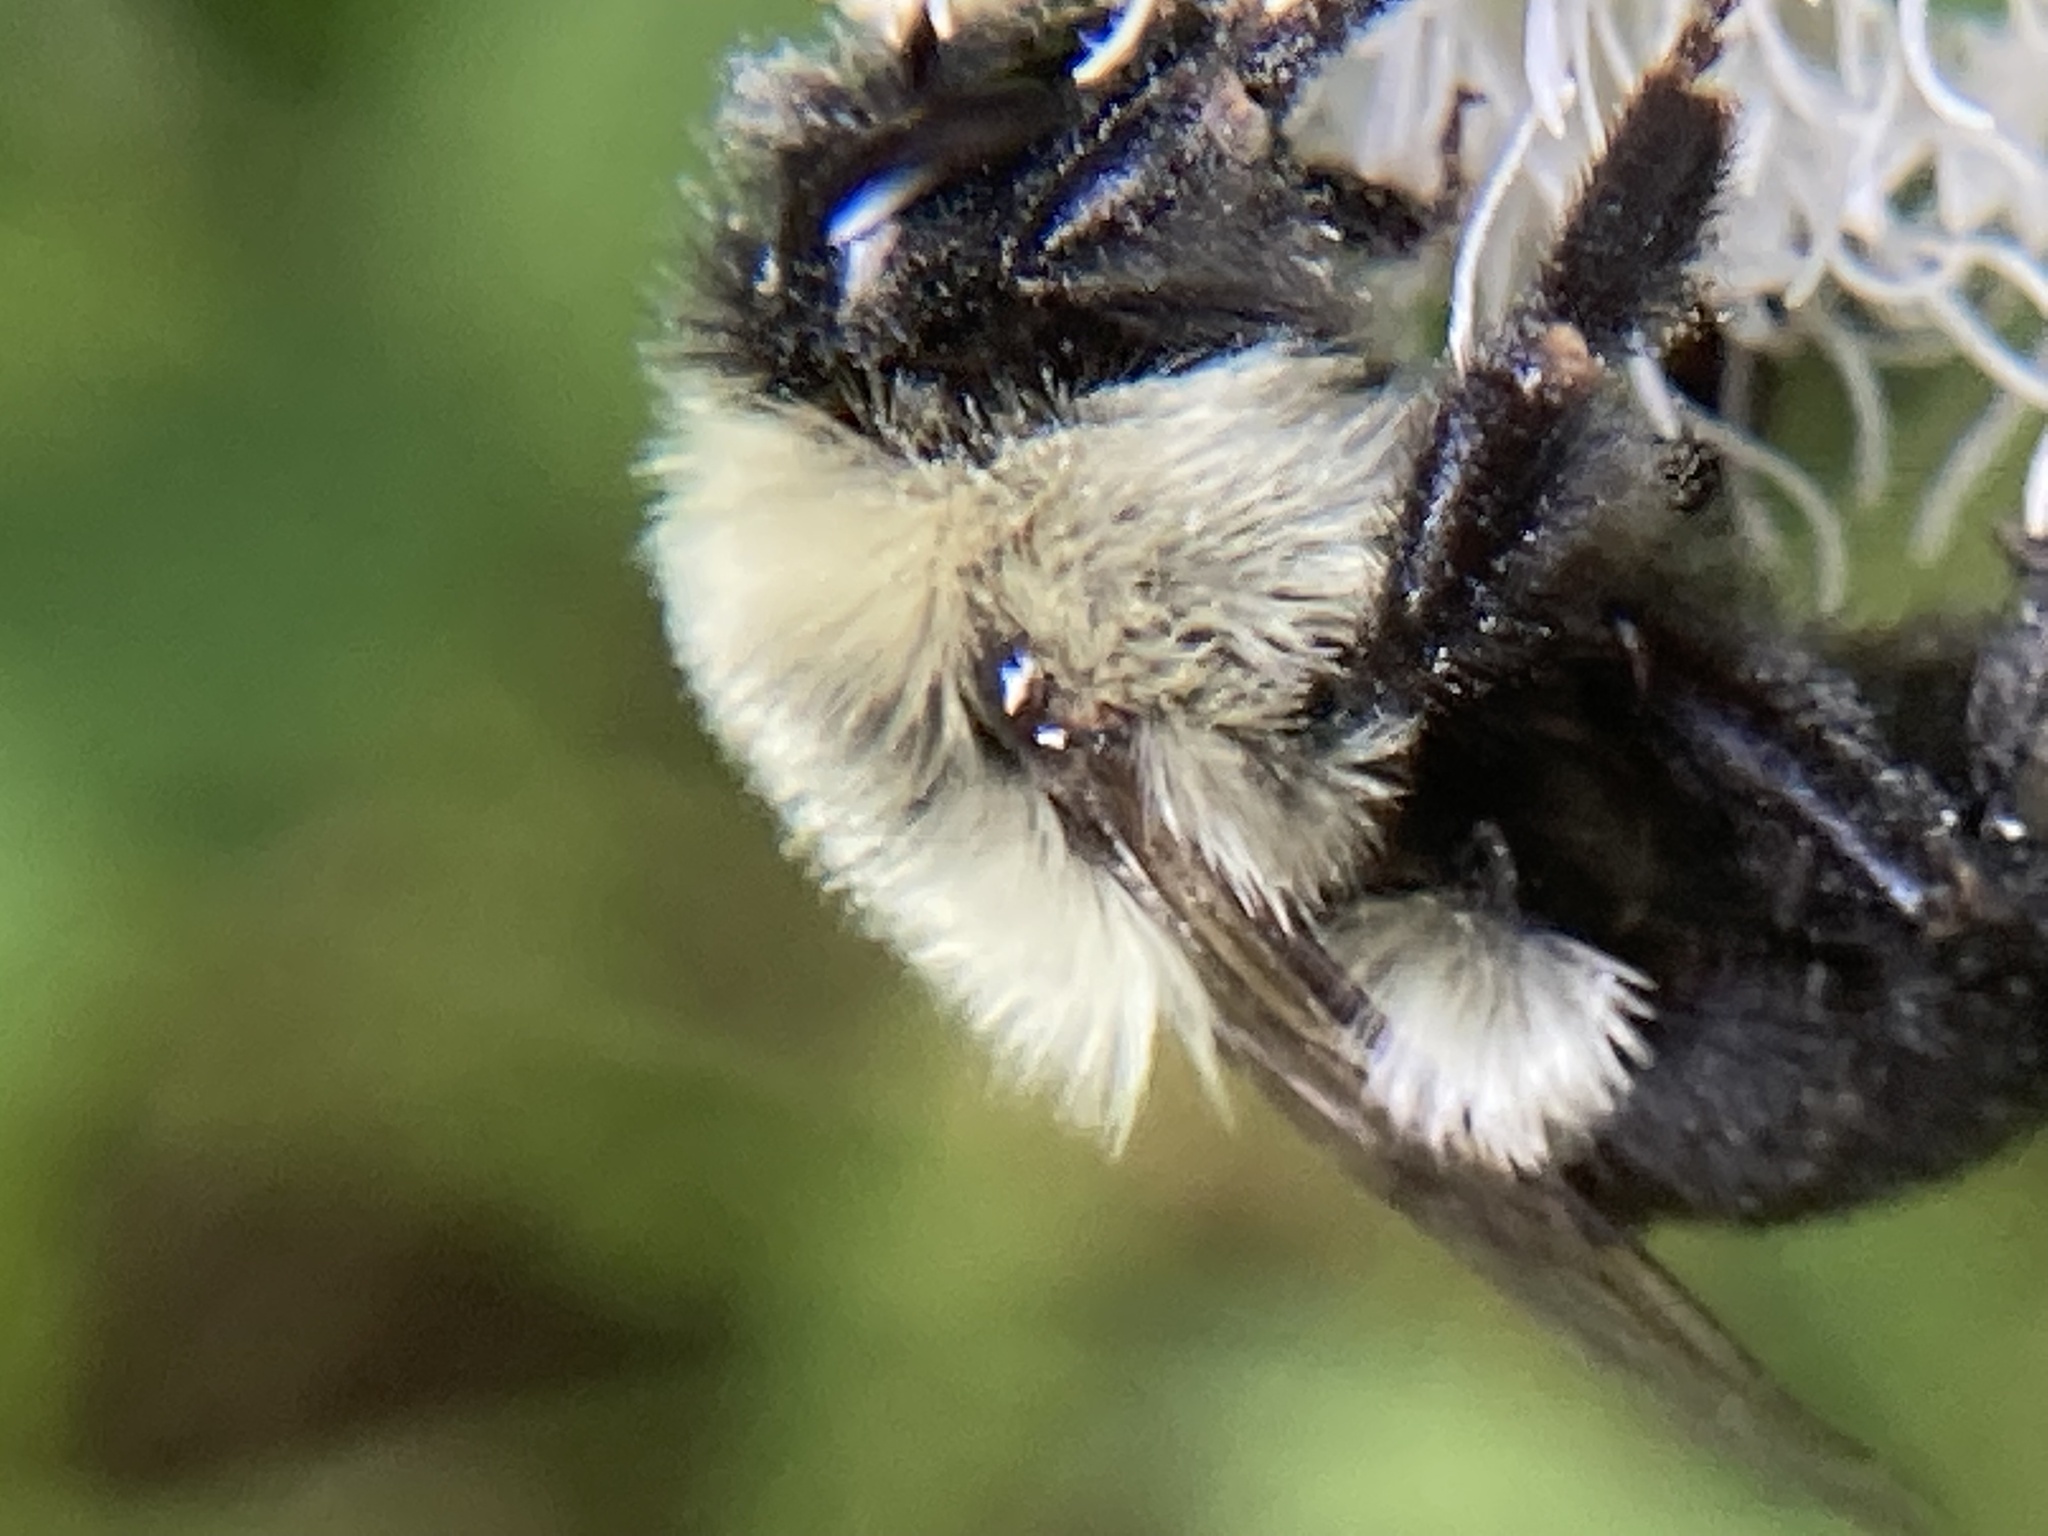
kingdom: Animalia
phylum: Arthropoda
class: Insecta
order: Hymenoptera
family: Apidae
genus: Bombus
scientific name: Bombus impatiens
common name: Common eastern bumble bee
